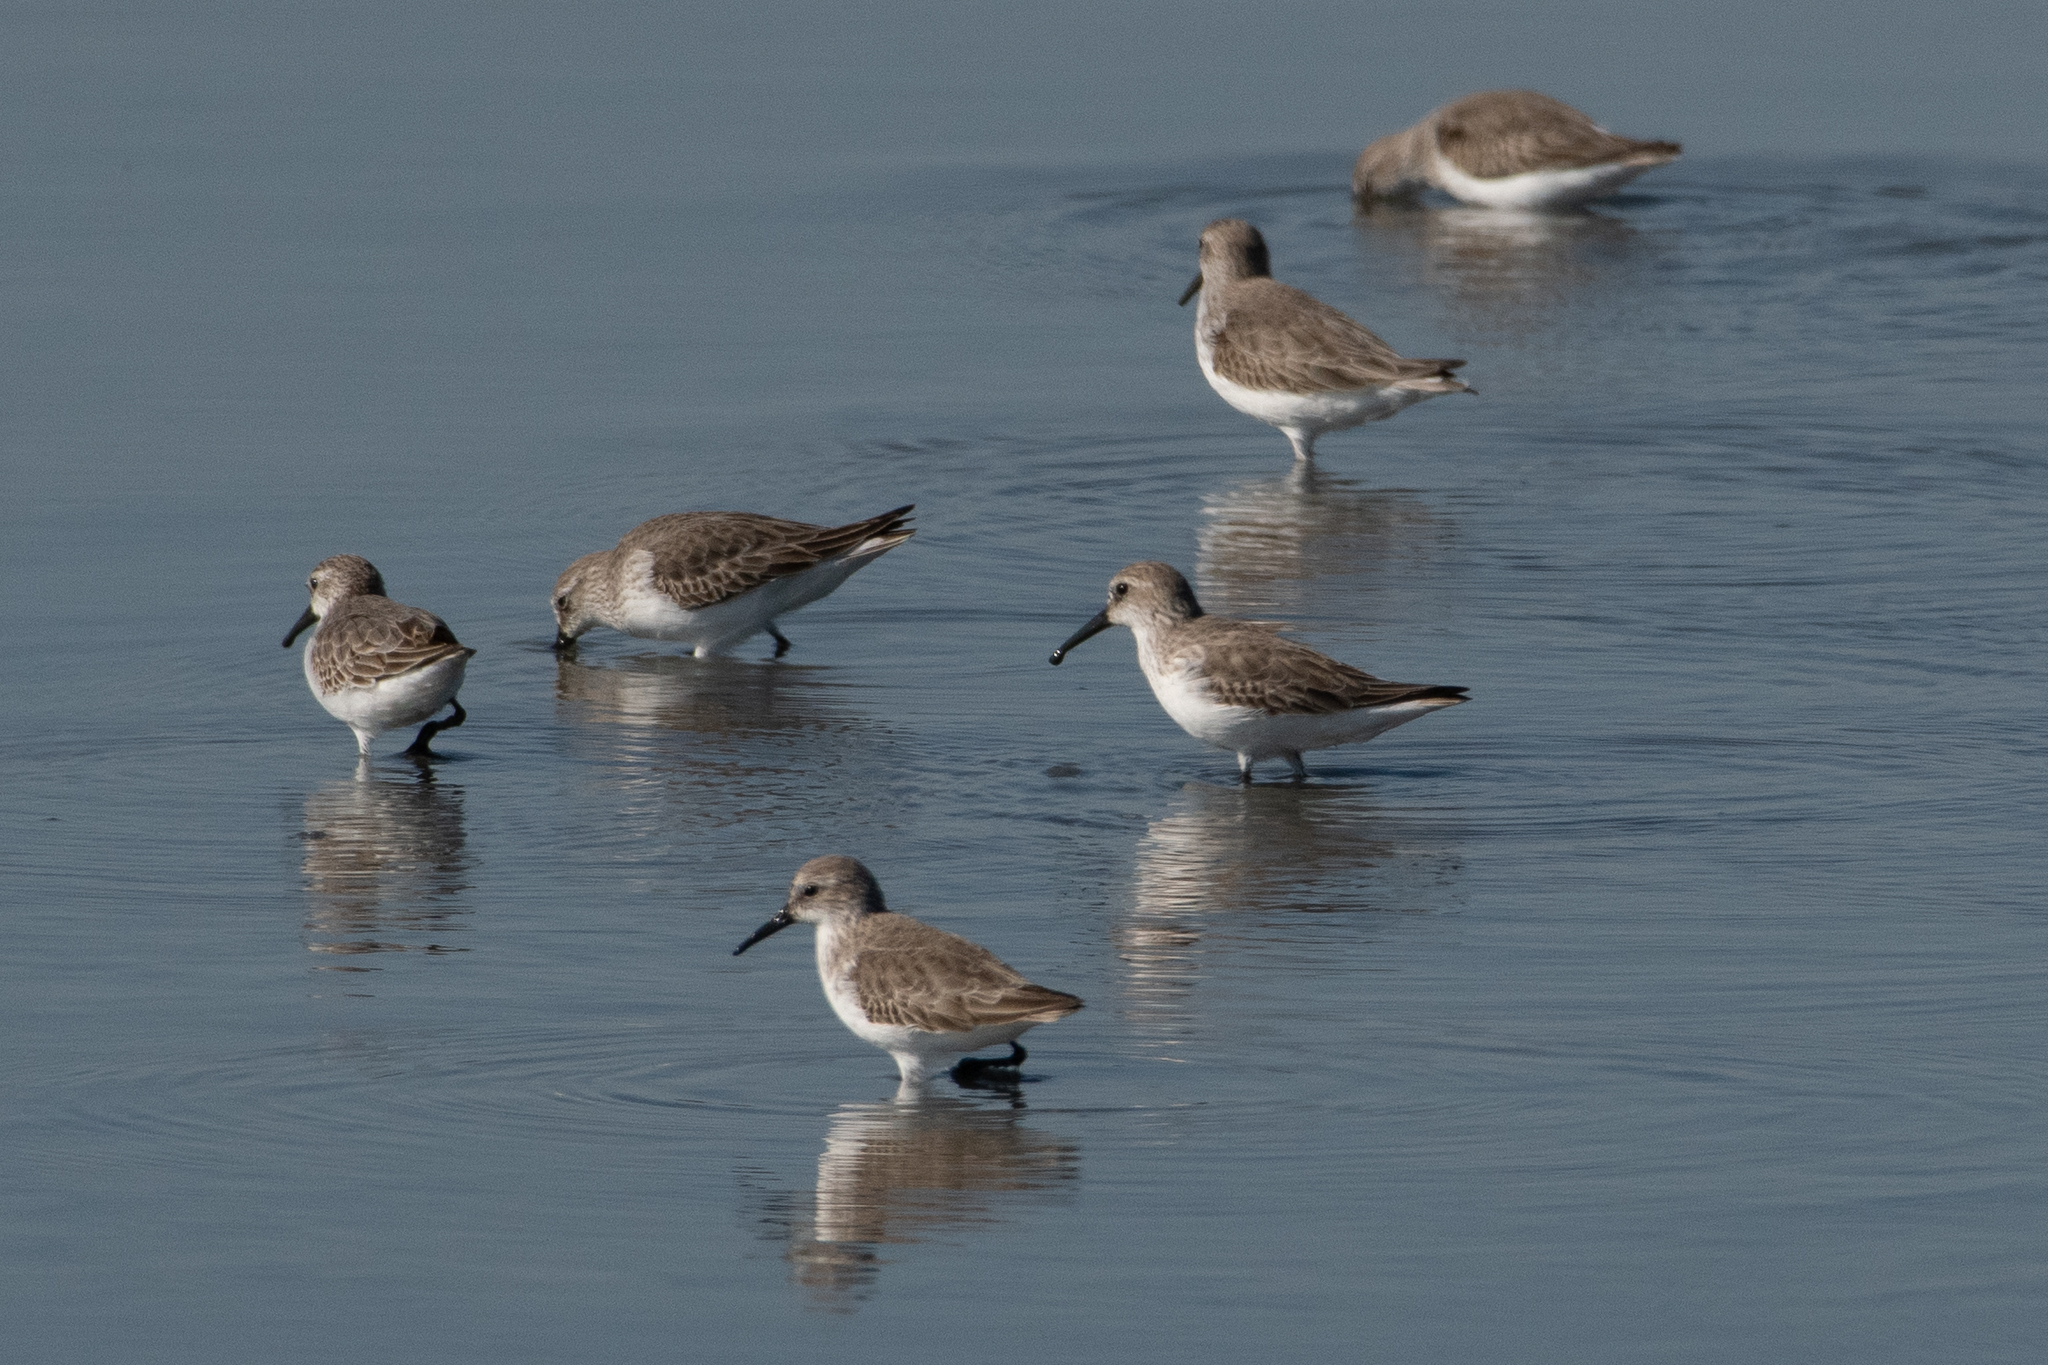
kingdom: Animalia
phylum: Chordata
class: Aves
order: Charadriiformes
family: Scolopacidae
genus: Calidris
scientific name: Calidris mauri
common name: Western sandpiper
